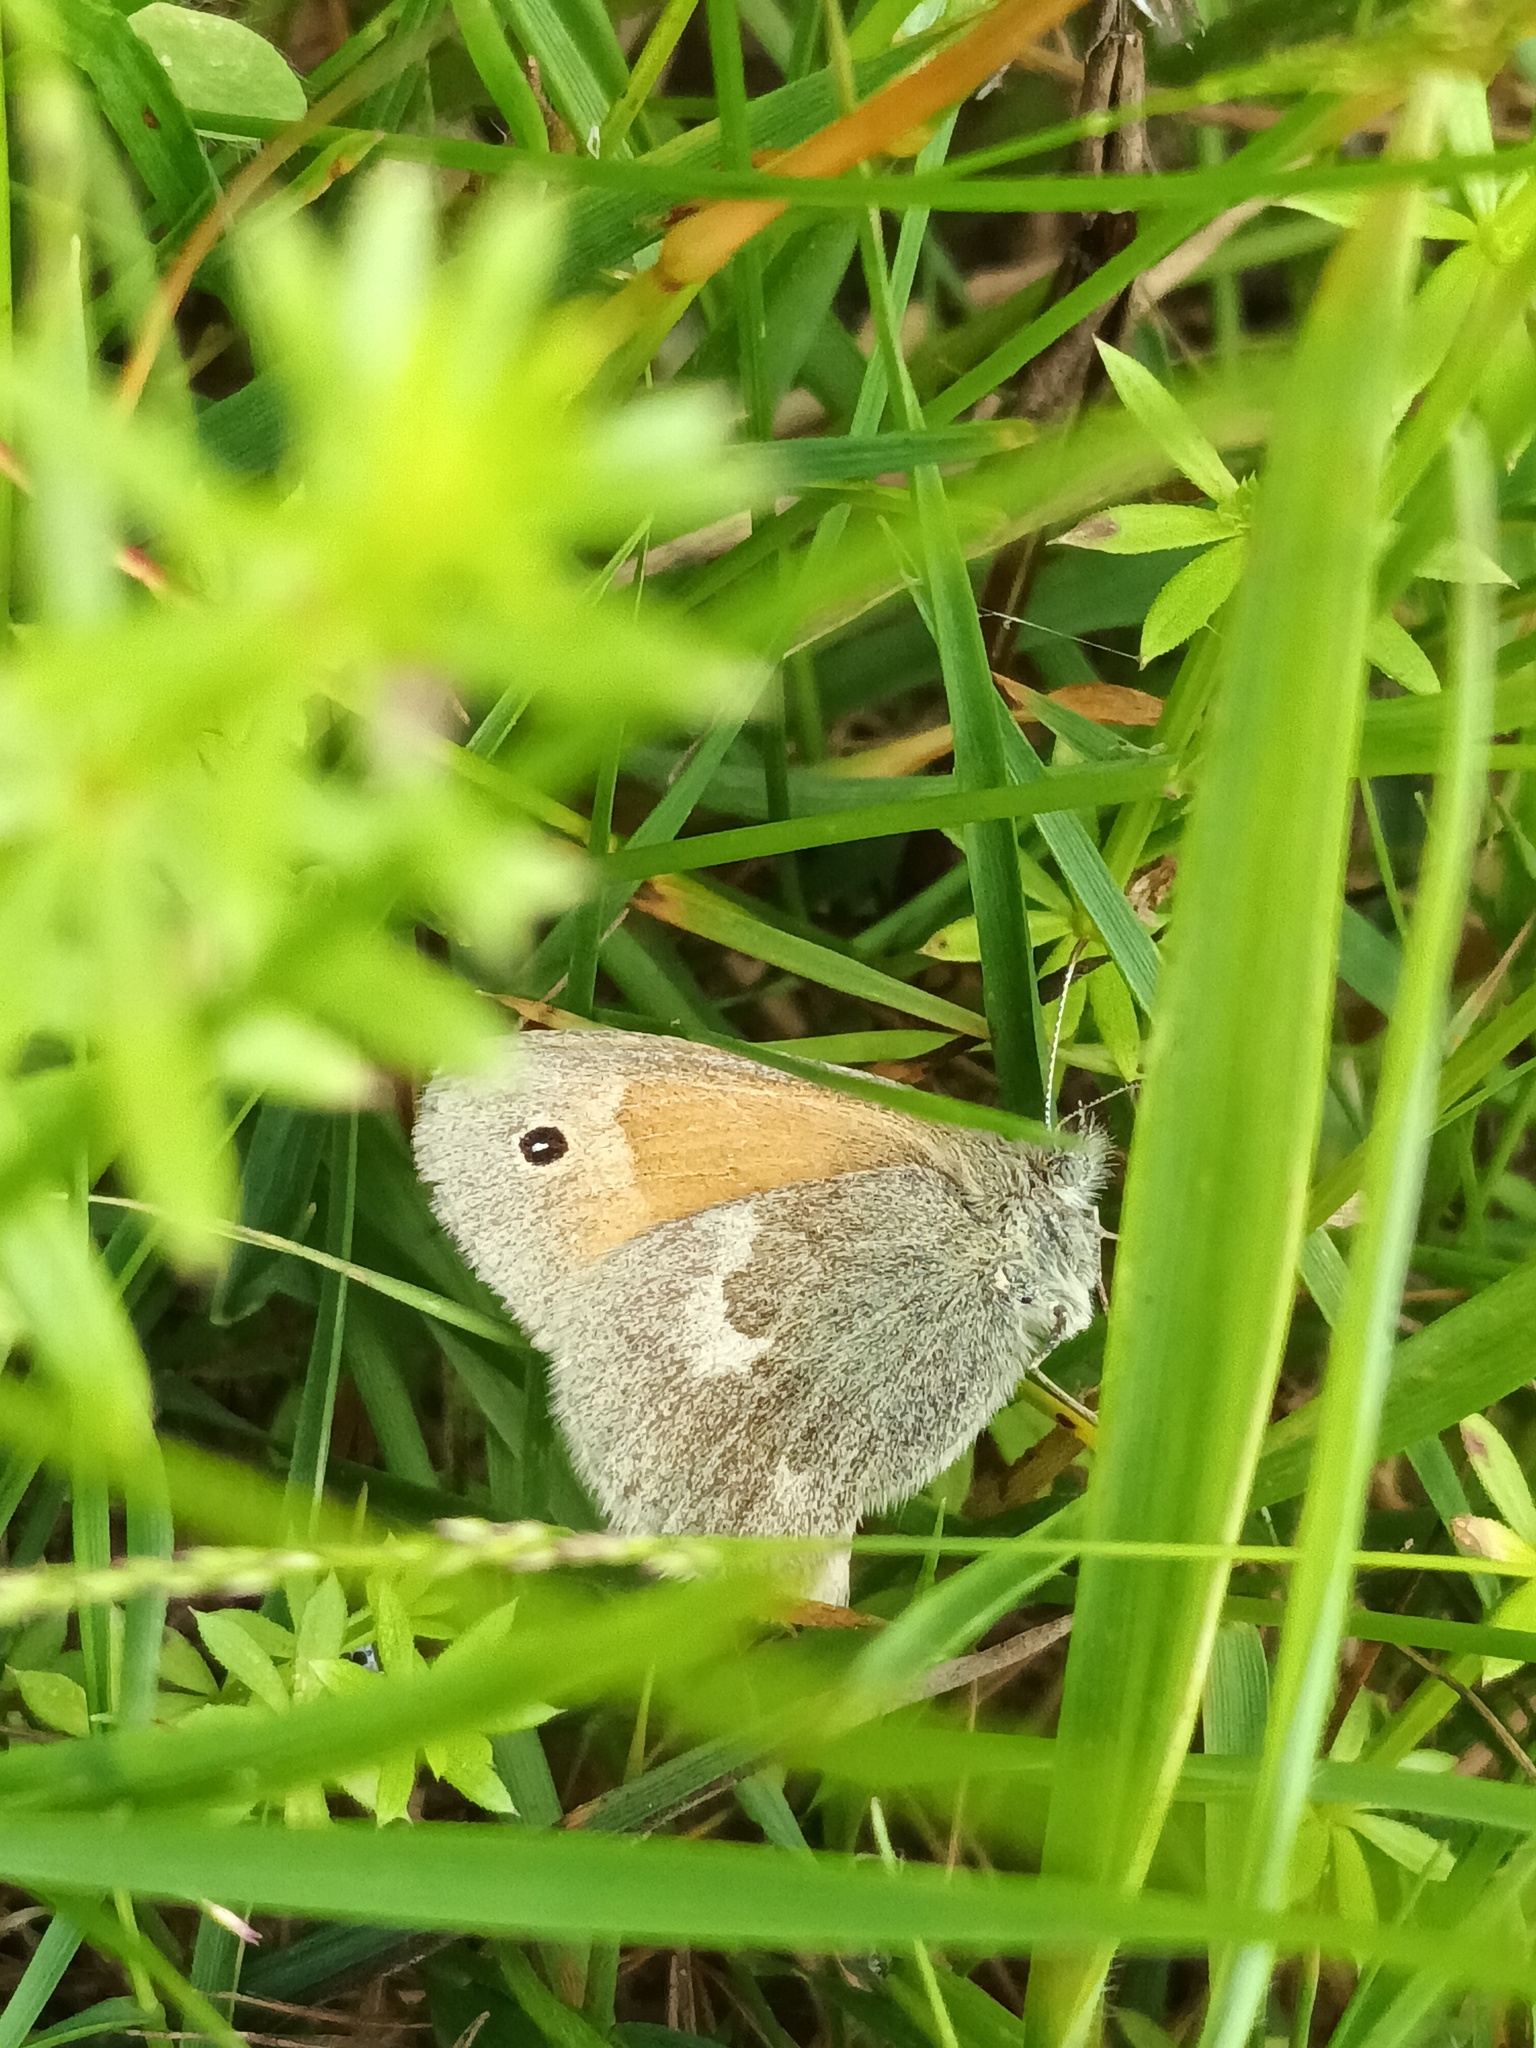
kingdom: Animalia
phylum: Arthropoda
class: Insecta
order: Lepidoptera
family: Nymphalidae
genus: Coenonympha
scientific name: Coenonympha california
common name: Common ringlet
